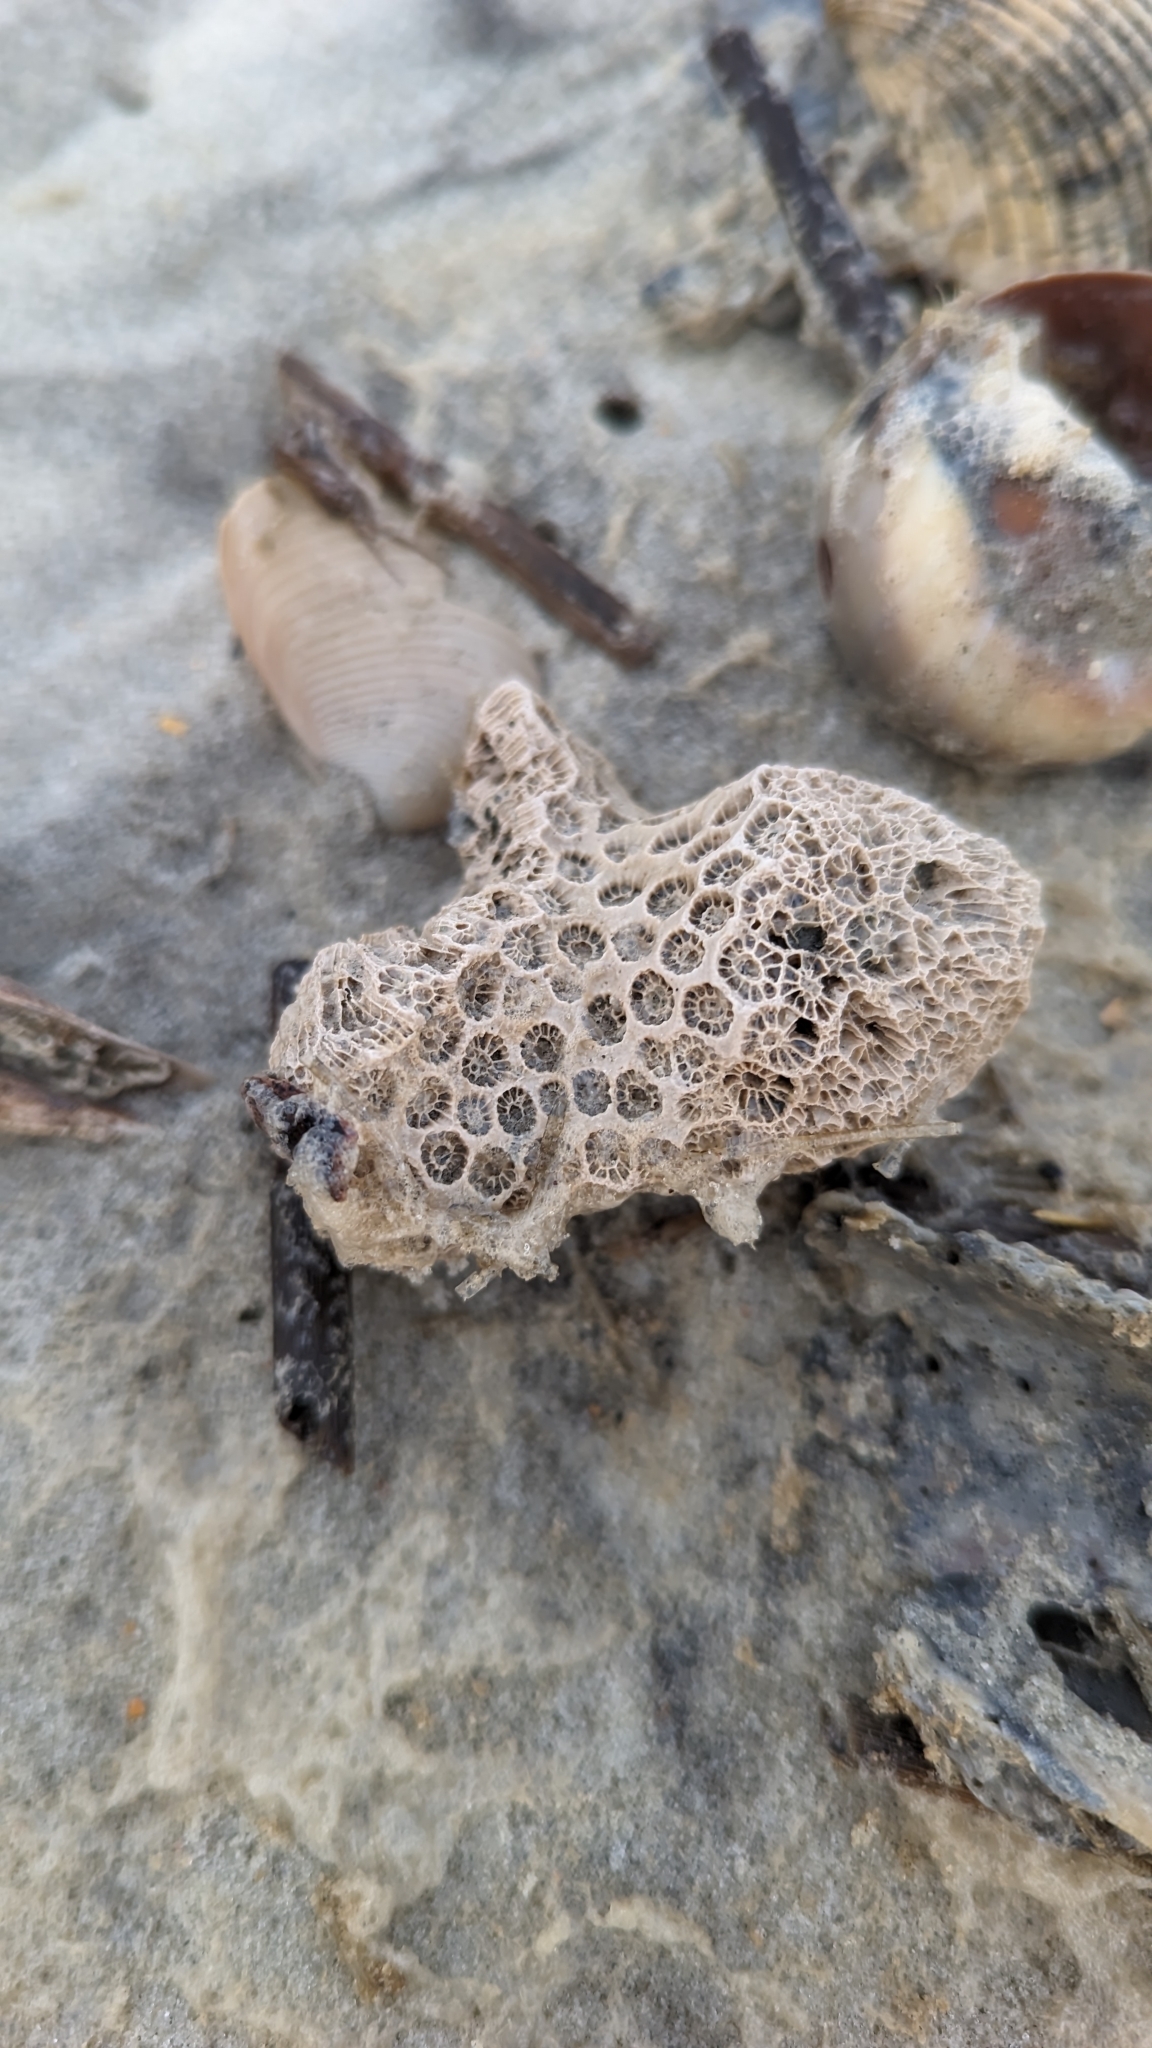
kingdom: Animalia
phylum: Cnidaria
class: Anthozoa
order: Scleractinia
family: Astrangiidae
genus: Astrangia
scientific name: Astrangia poculata
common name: Northern star coral
